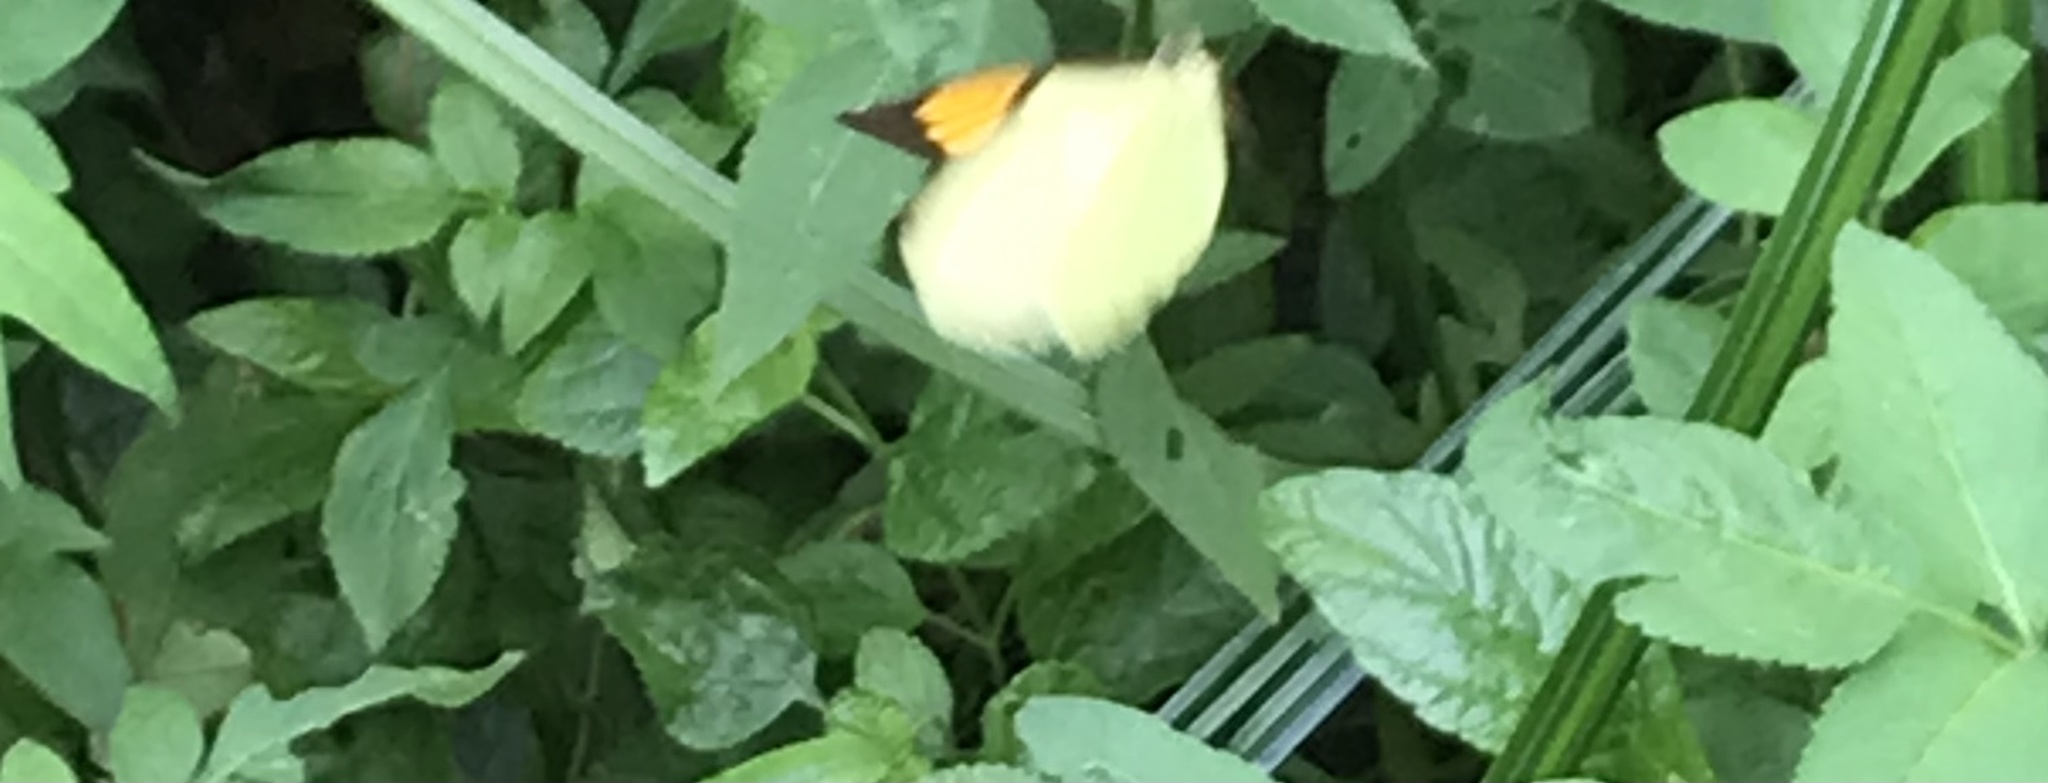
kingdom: Animalia
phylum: Arthropoda
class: Insecta
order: Lepidoptera
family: Pieridae
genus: Ixias
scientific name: Ixias pyrene
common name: Yellow orange tip
